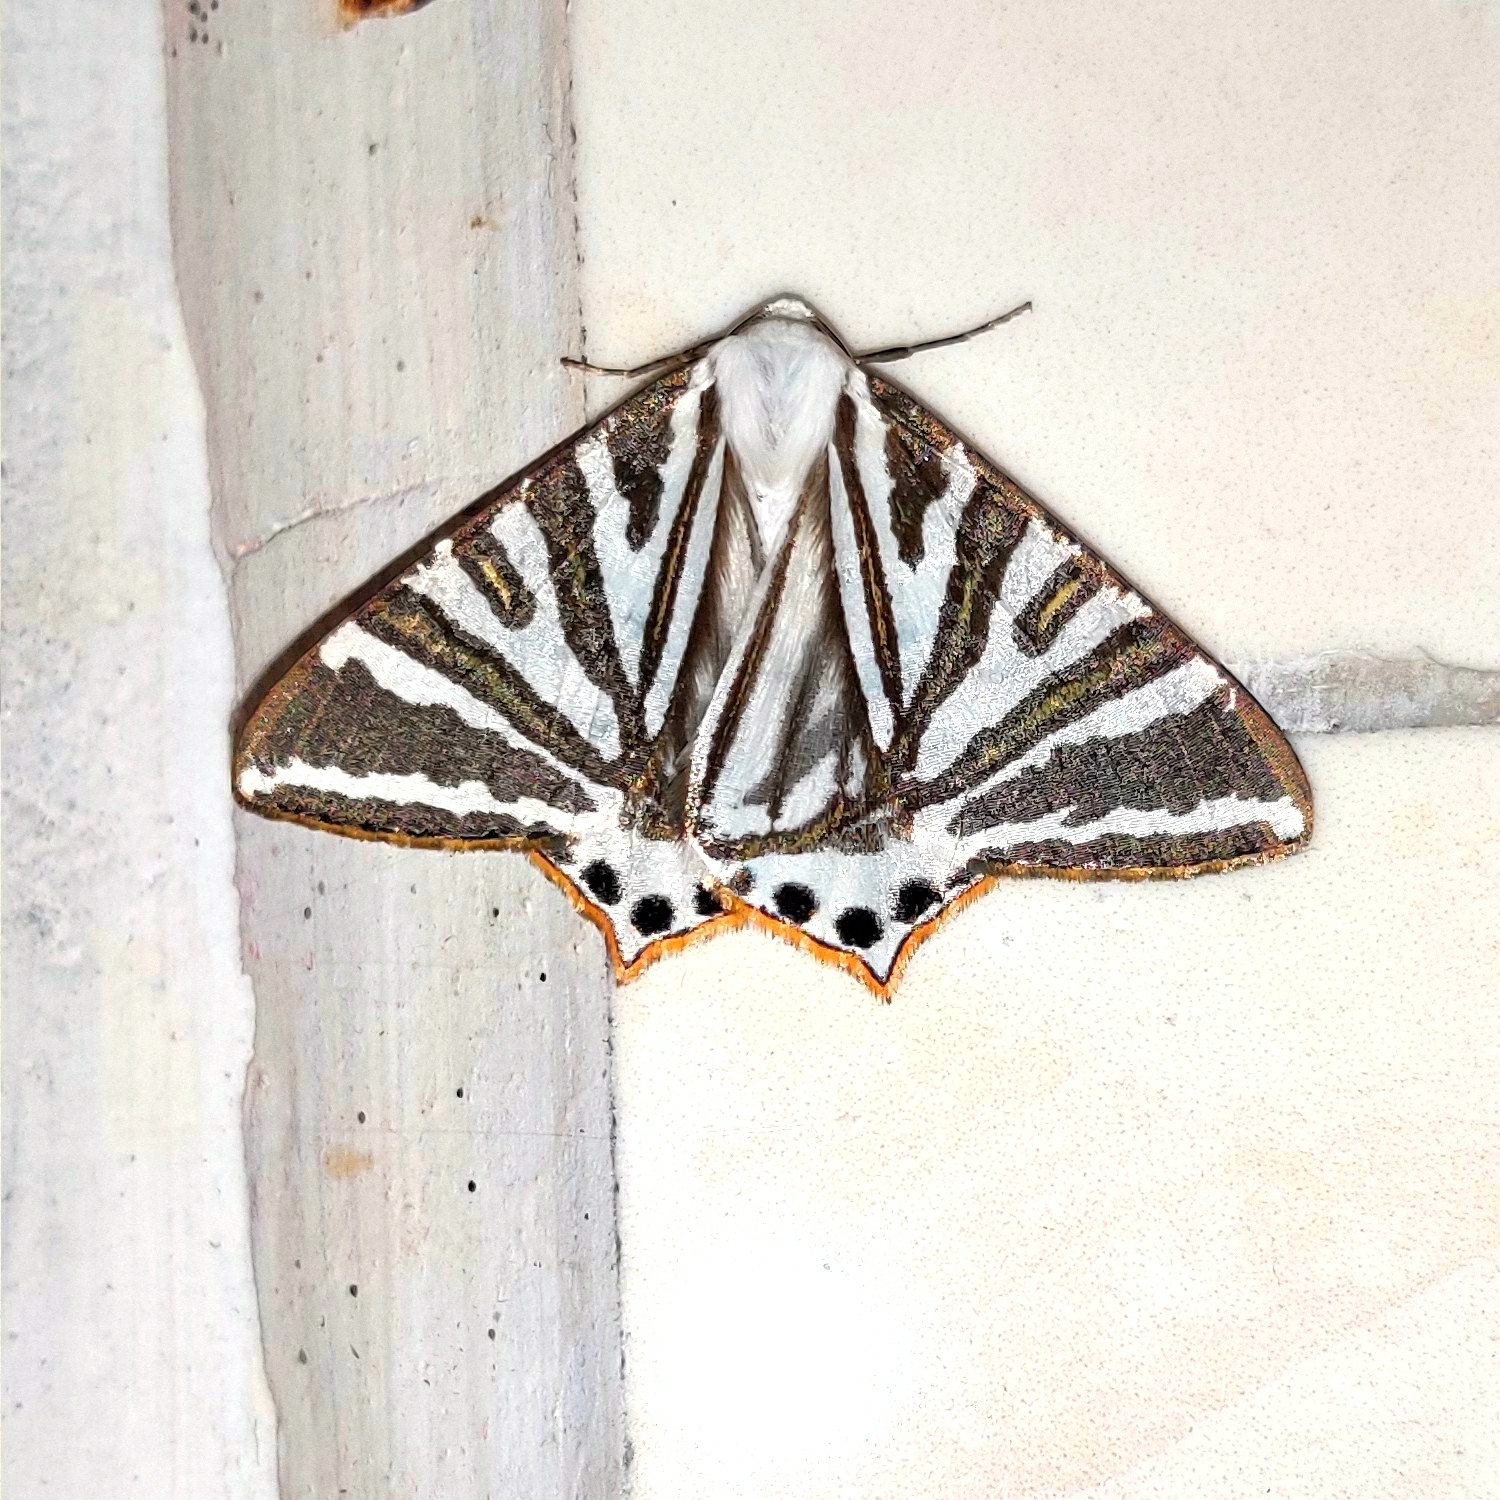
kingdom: Animalia
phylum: Arthropoda
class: Insecta
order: Lepidoptera
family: Geometridae
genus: Ourapteryx
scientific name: Ourapteryx convergens
